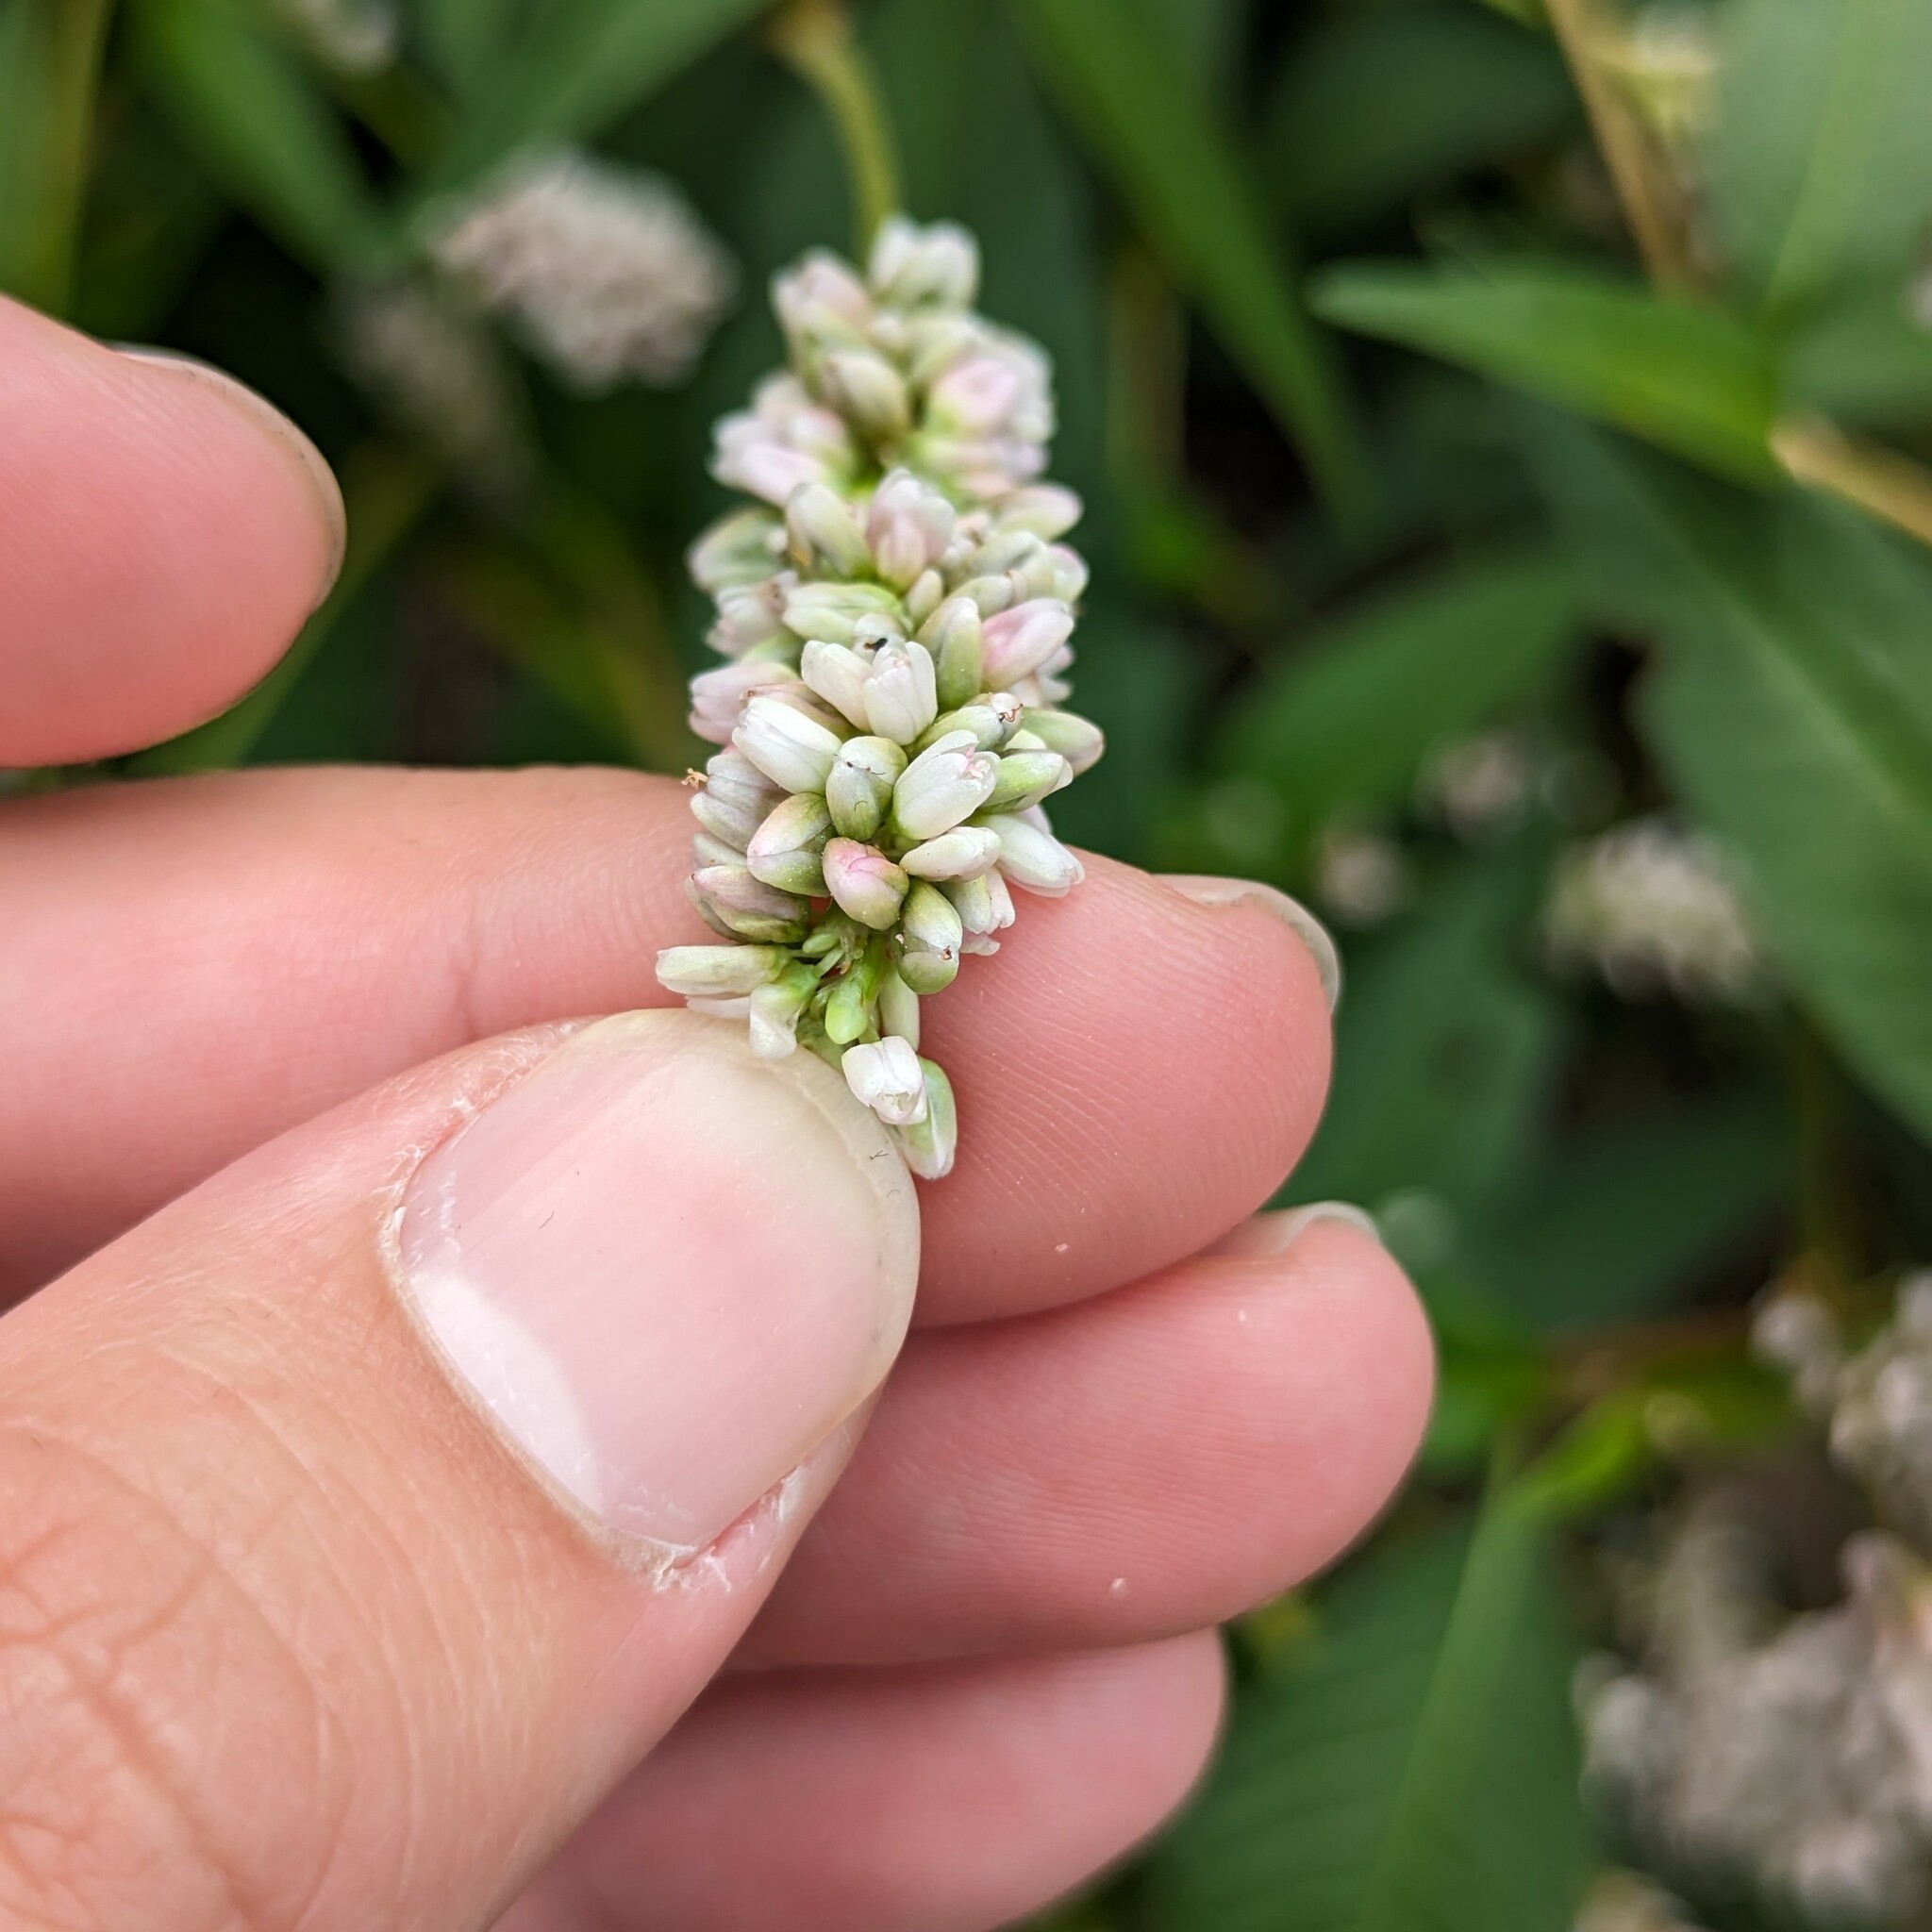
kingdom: Plantae
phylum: Tracheophyta
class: Magnoliopsida
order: Caryophyllales
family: Polygonaceae
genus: Persicaria
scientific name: Persicaria pensylvanica
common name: Pinkweed
